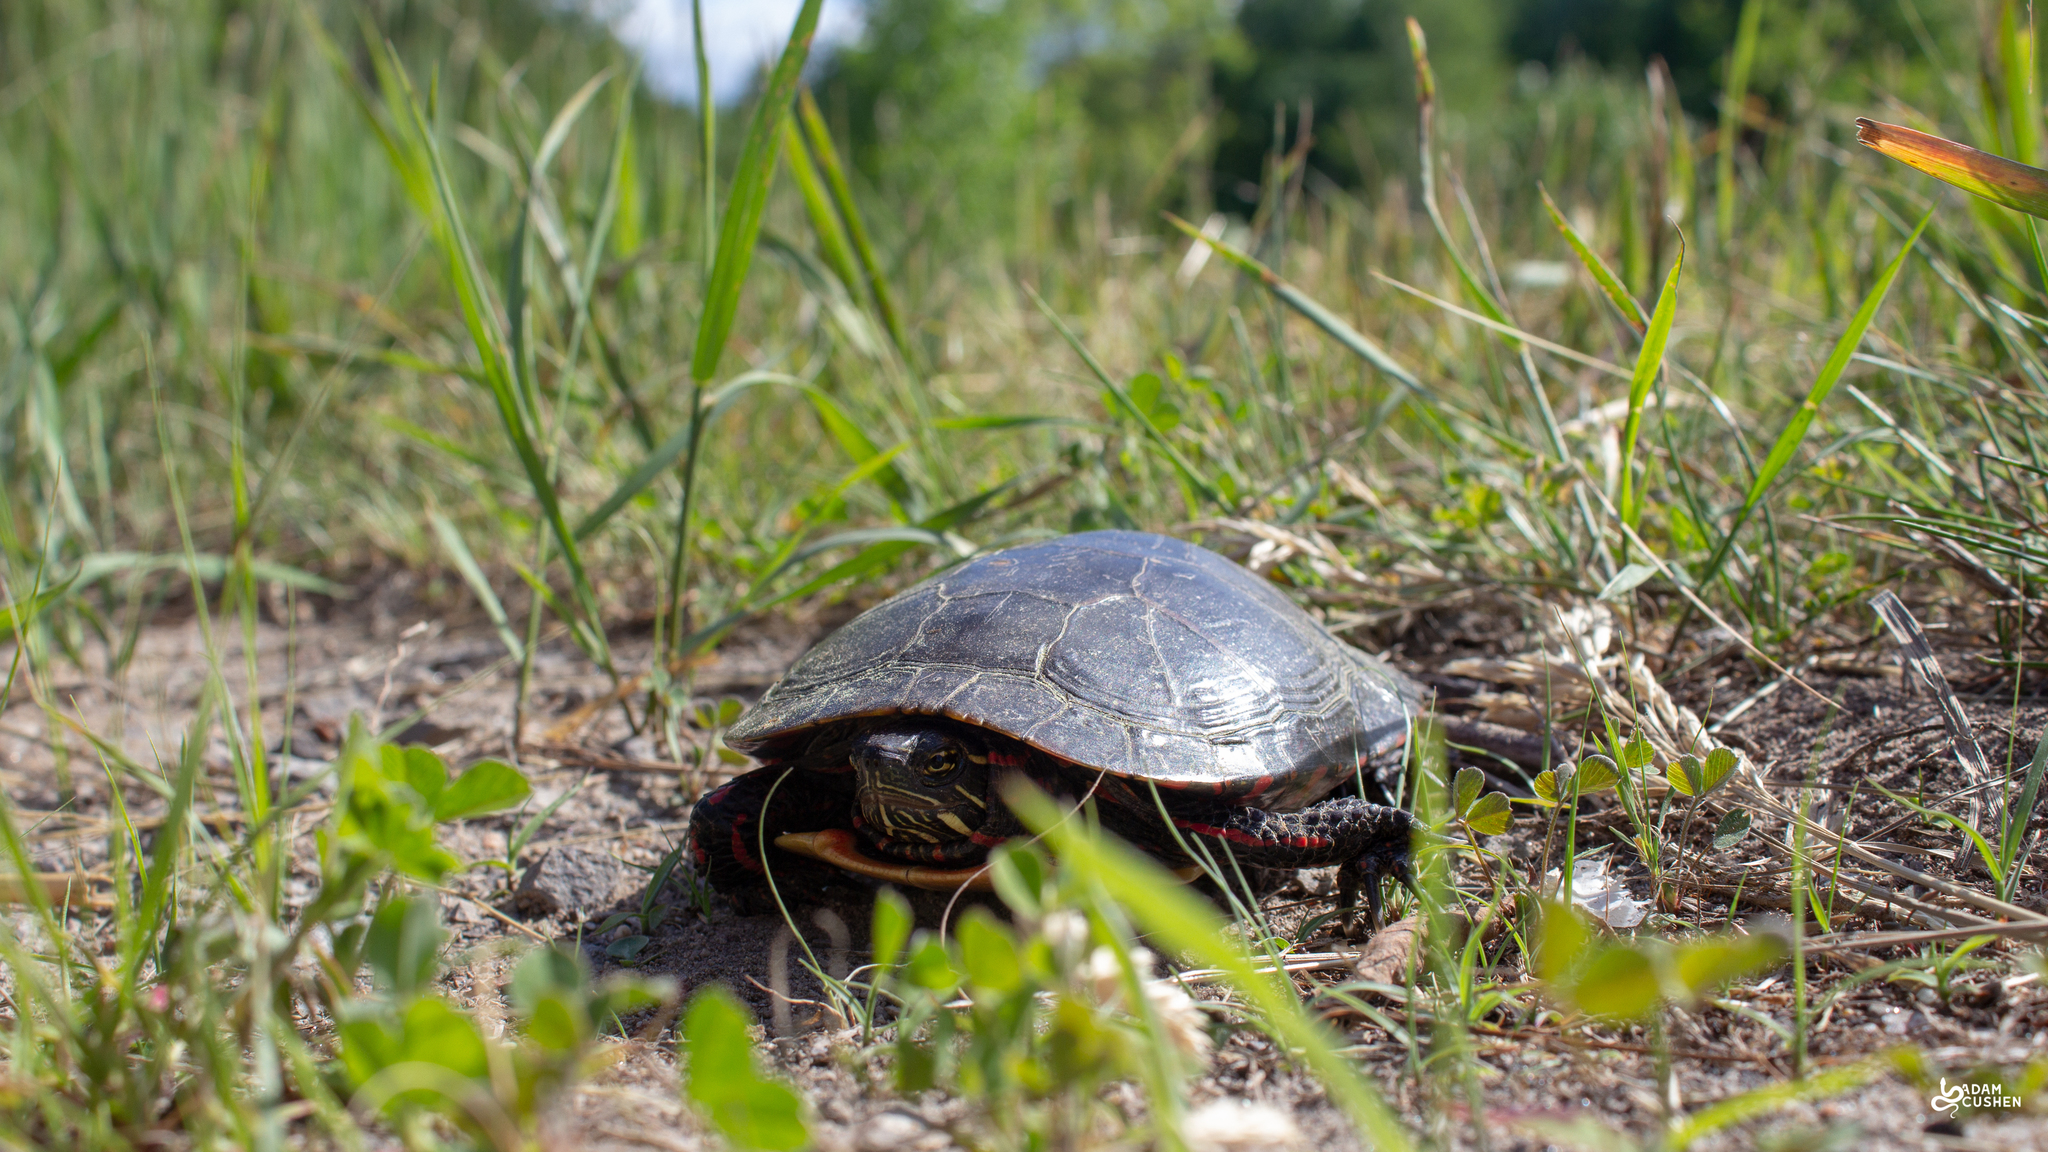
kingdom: Animalia
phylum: Chordata
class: Testudines
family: Emydidae
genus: Chrysemys
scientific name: Chrysemys picta
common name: Painted turtle
